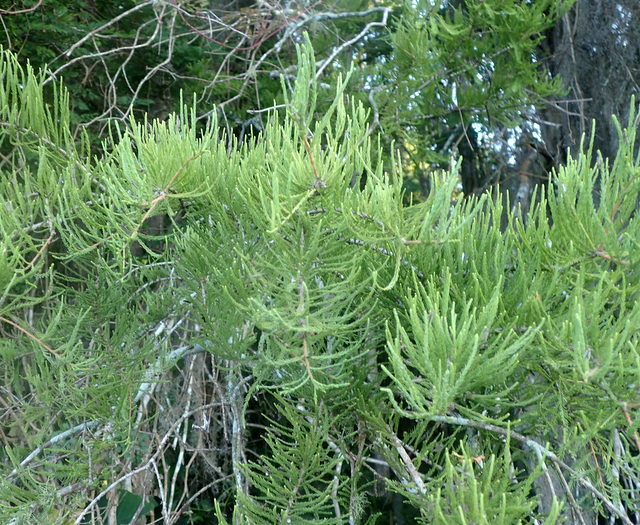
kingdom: Plantae
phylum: Tracheophyta
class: Pinopsida
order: Pinales
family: Cupressaceae
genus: Taxodium
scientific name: Taxodium distichum
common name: Bald cypress
